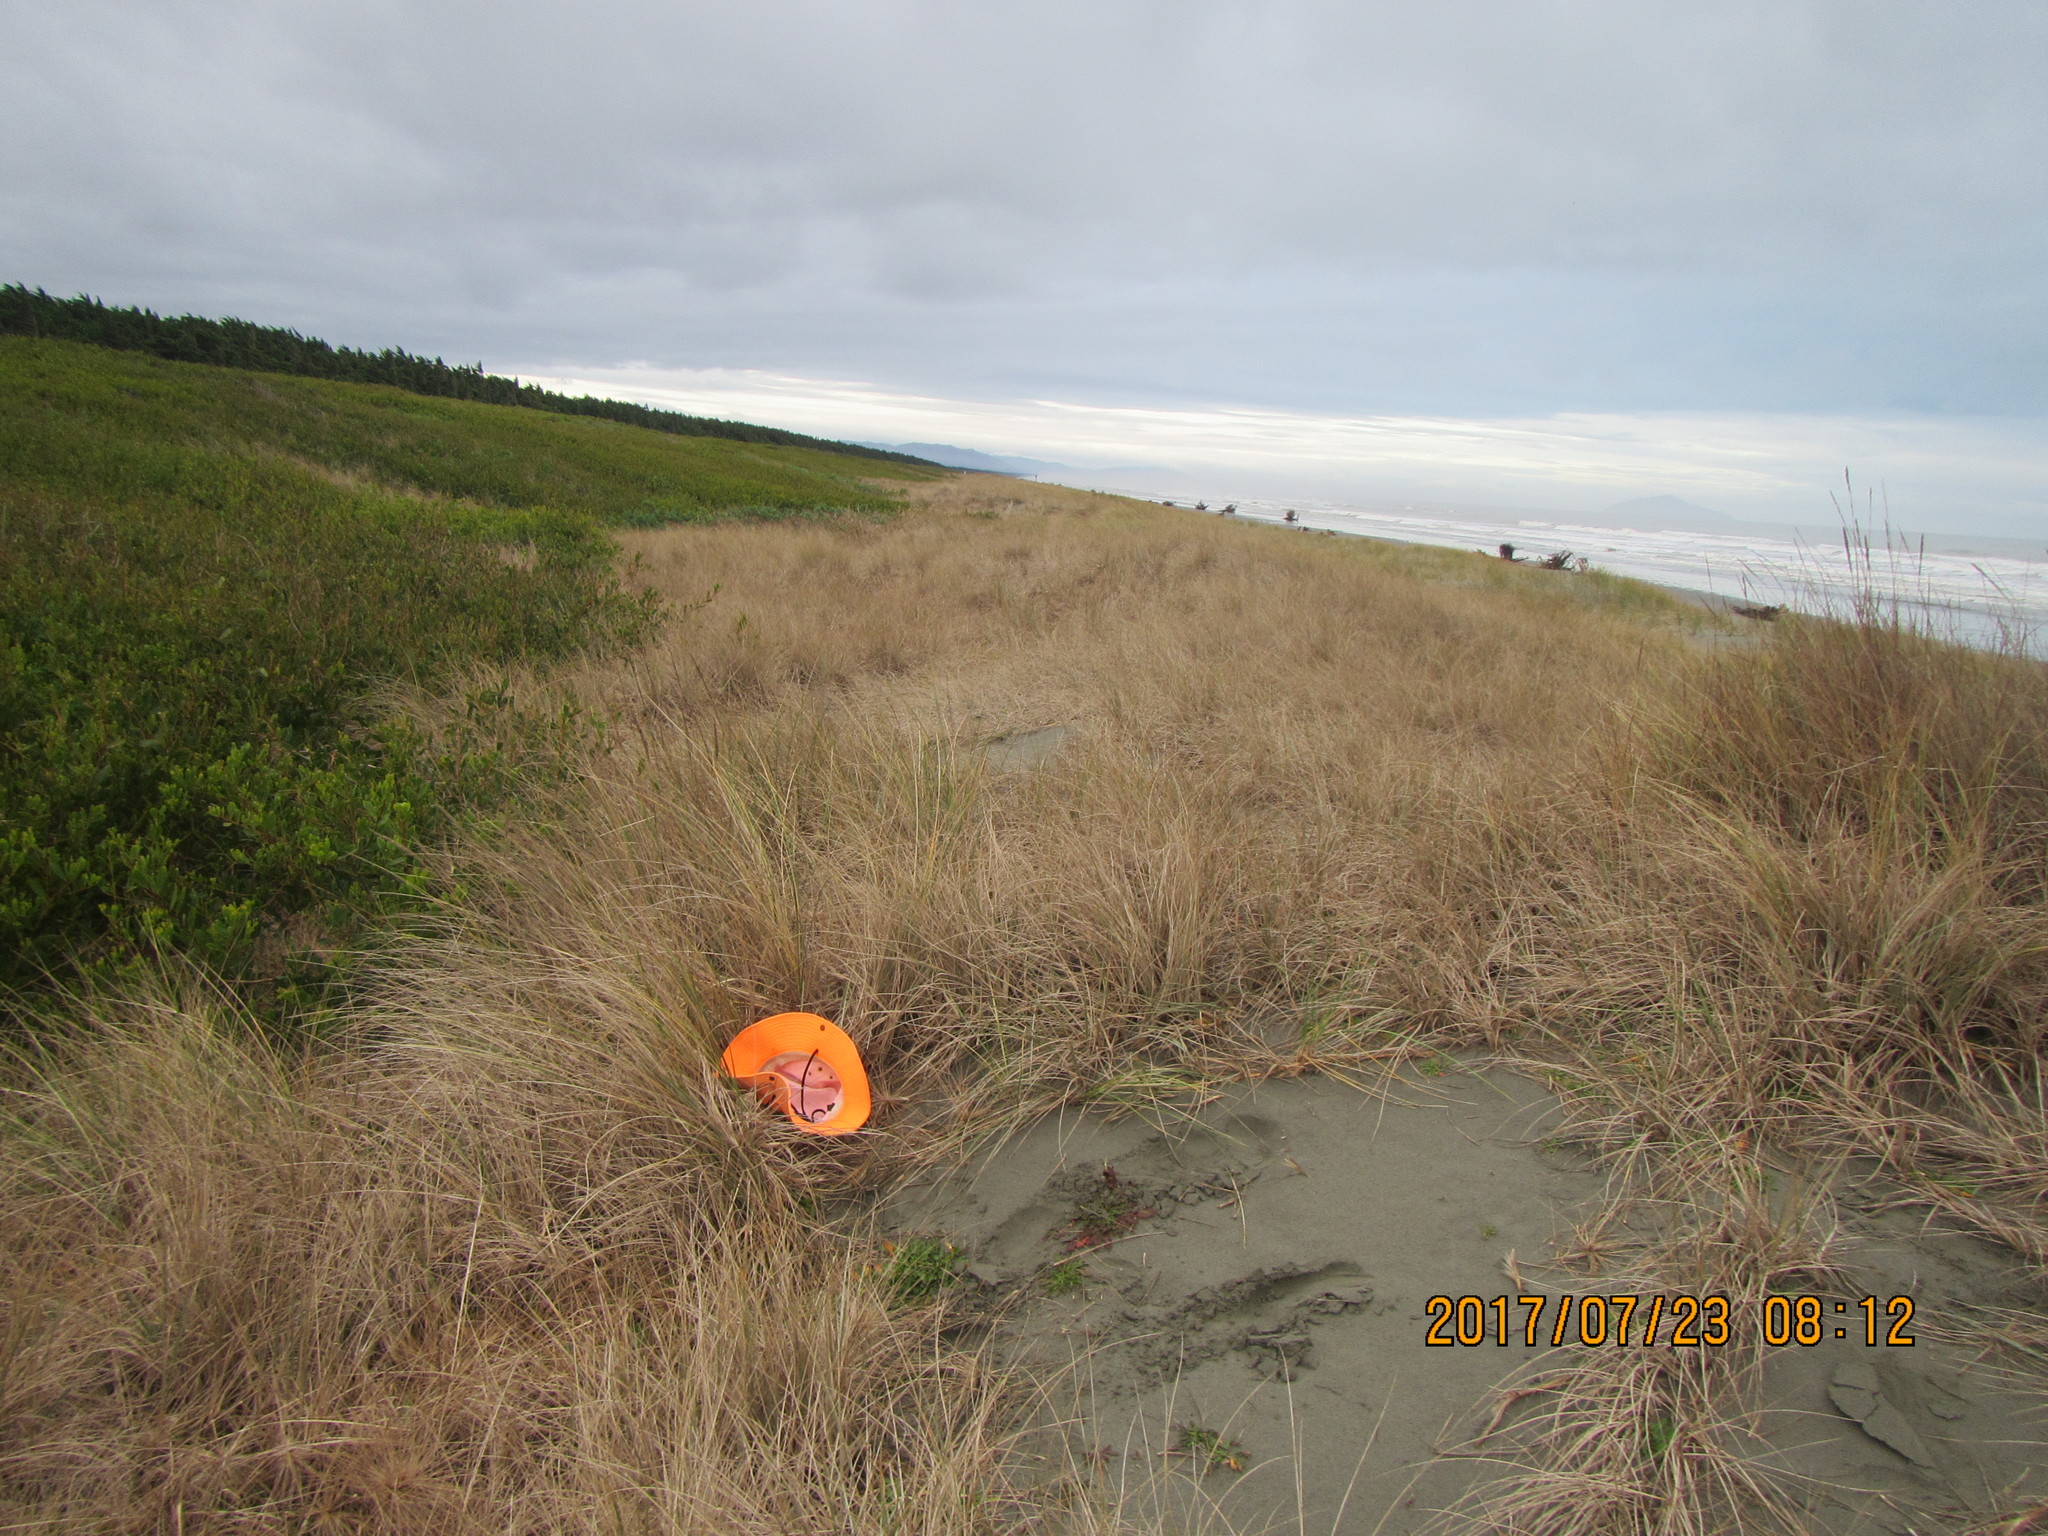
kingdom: Animalia
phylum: Arthropoda
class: Arachnida
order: Araneae
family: Araneidae
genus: Novakiella
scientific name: Novakiella trituberculosa
